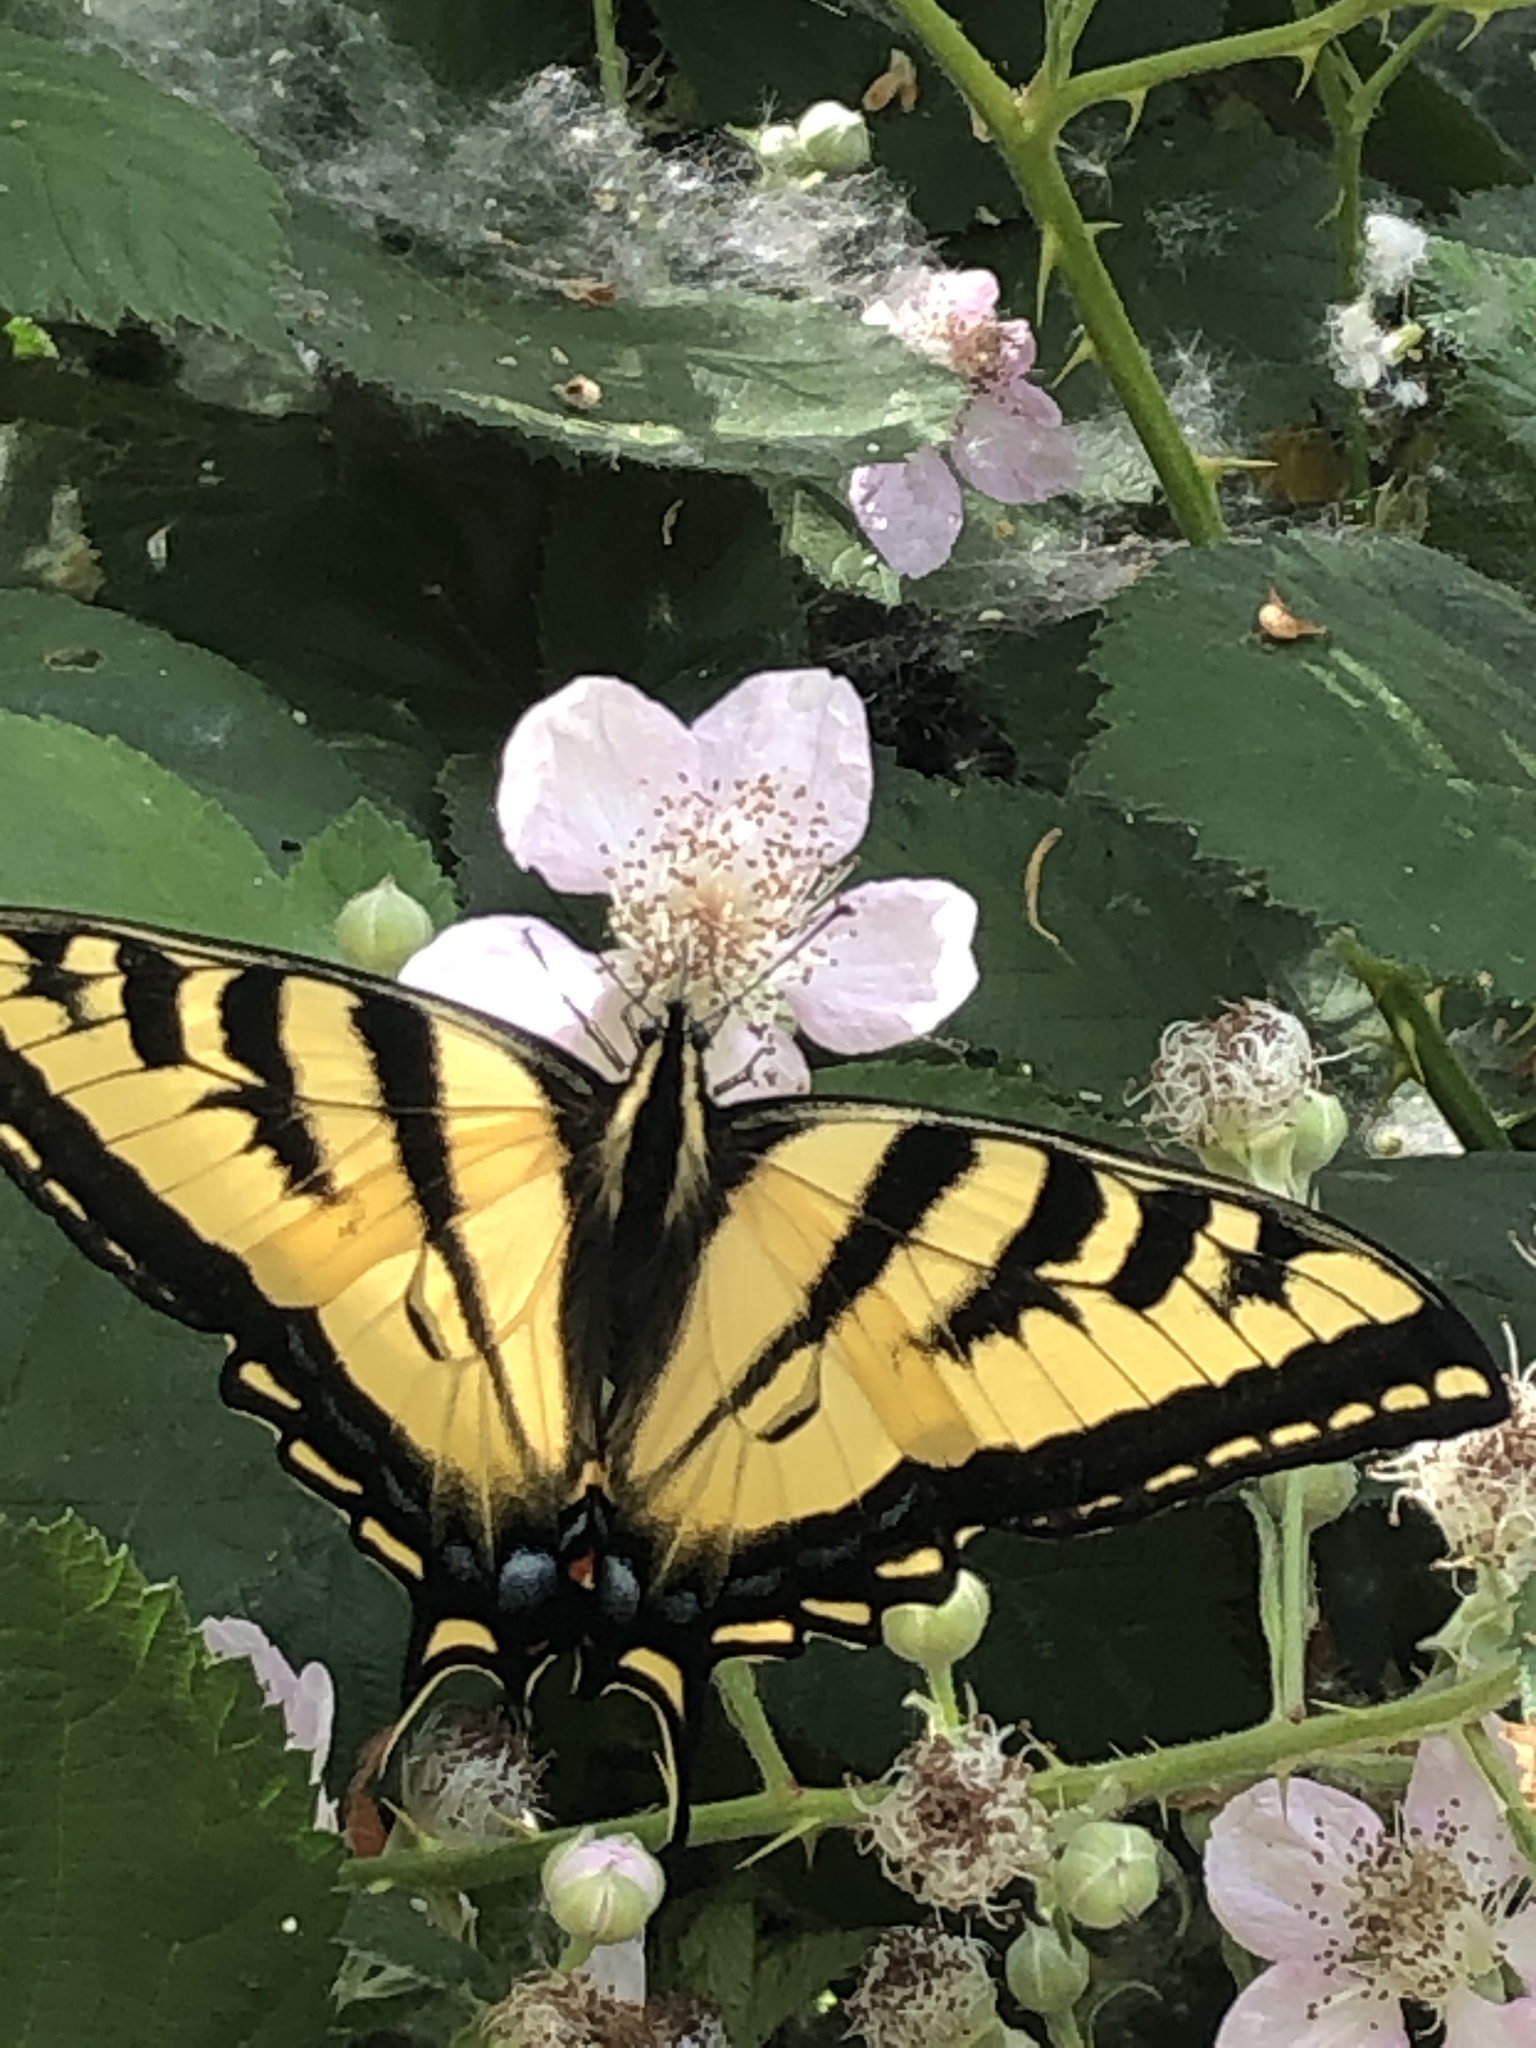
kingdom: Animalia
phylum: Arthropoda
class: Insecta
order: Lepidoptera
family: Papilionidae
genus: Papilio
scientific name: Papilio rutulus
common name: Western tiger swallowtail
